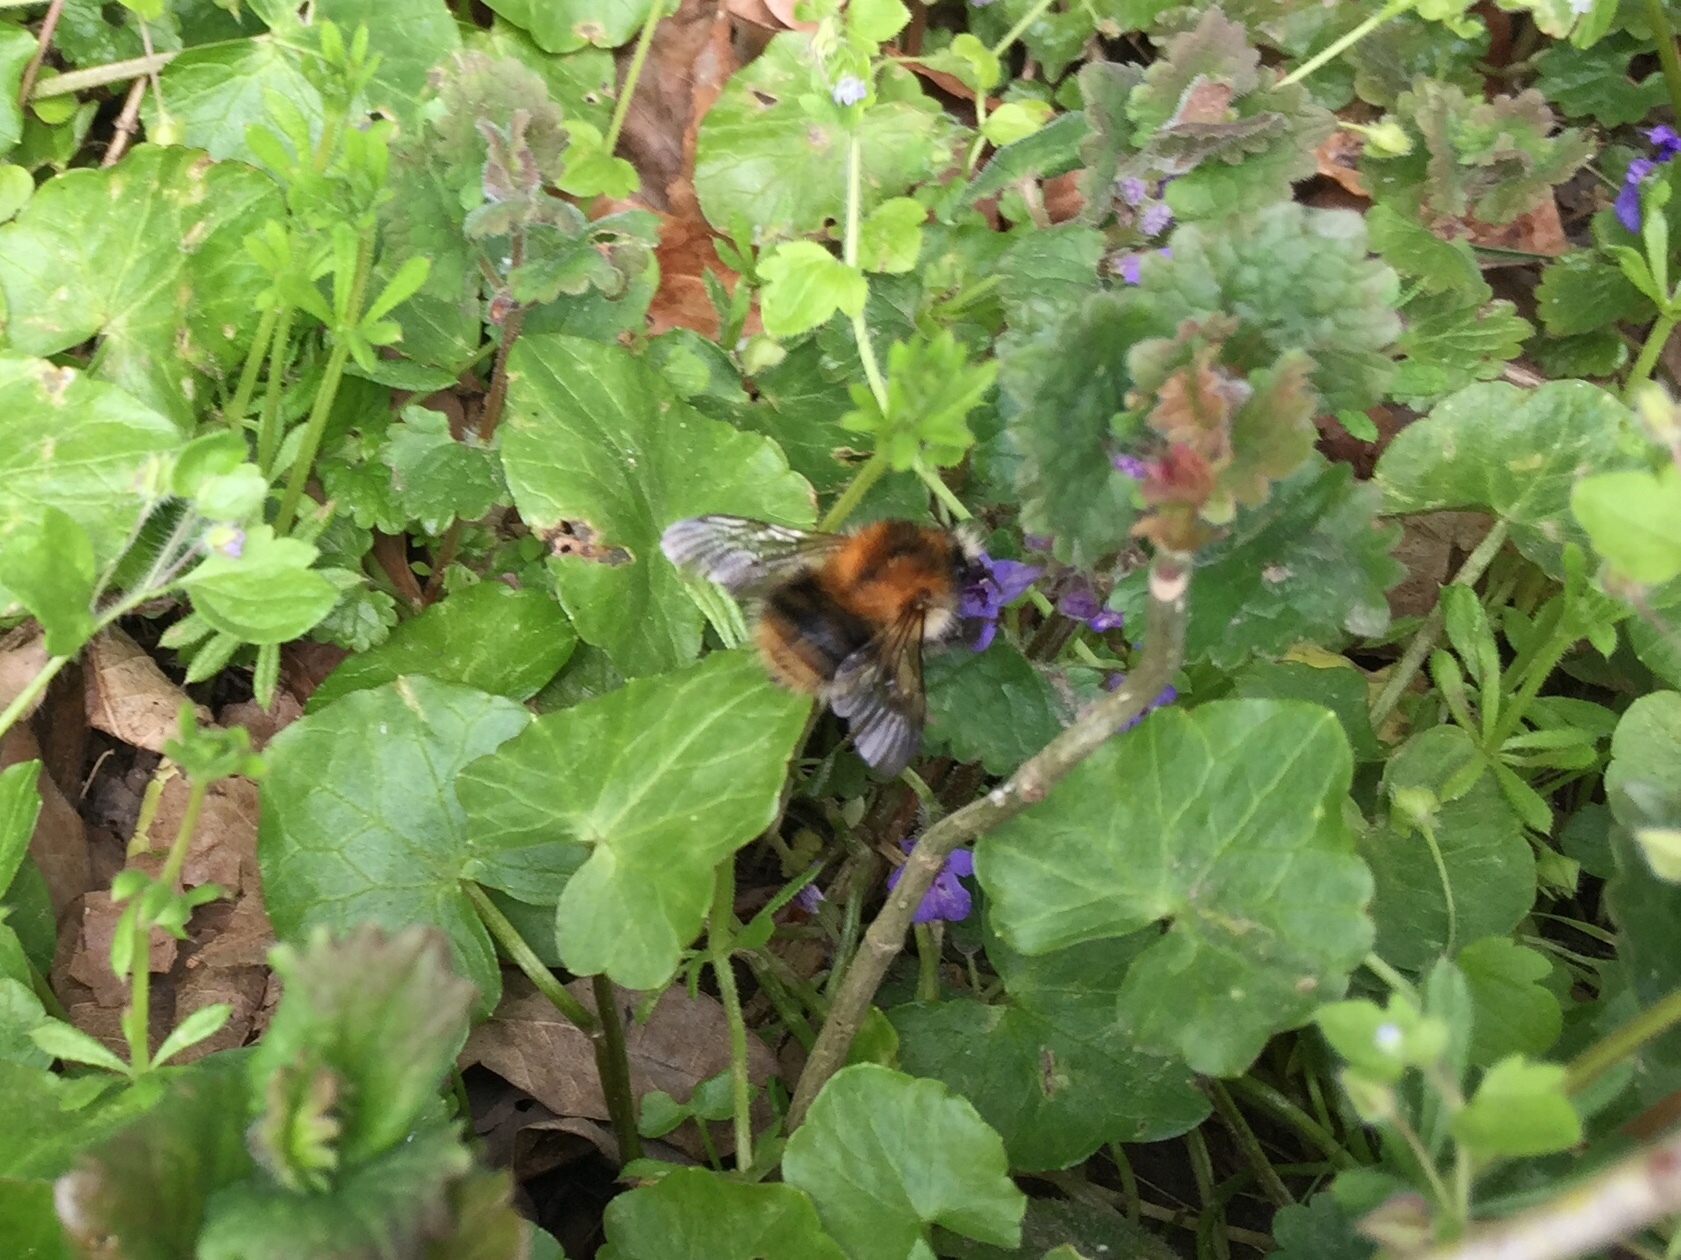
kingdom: Animalia
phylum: Arthropoda
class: Insecta
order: Hymenoptera
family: Apidae
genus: Bombus
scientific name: Bombus pascuorum
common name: Common carder bee
